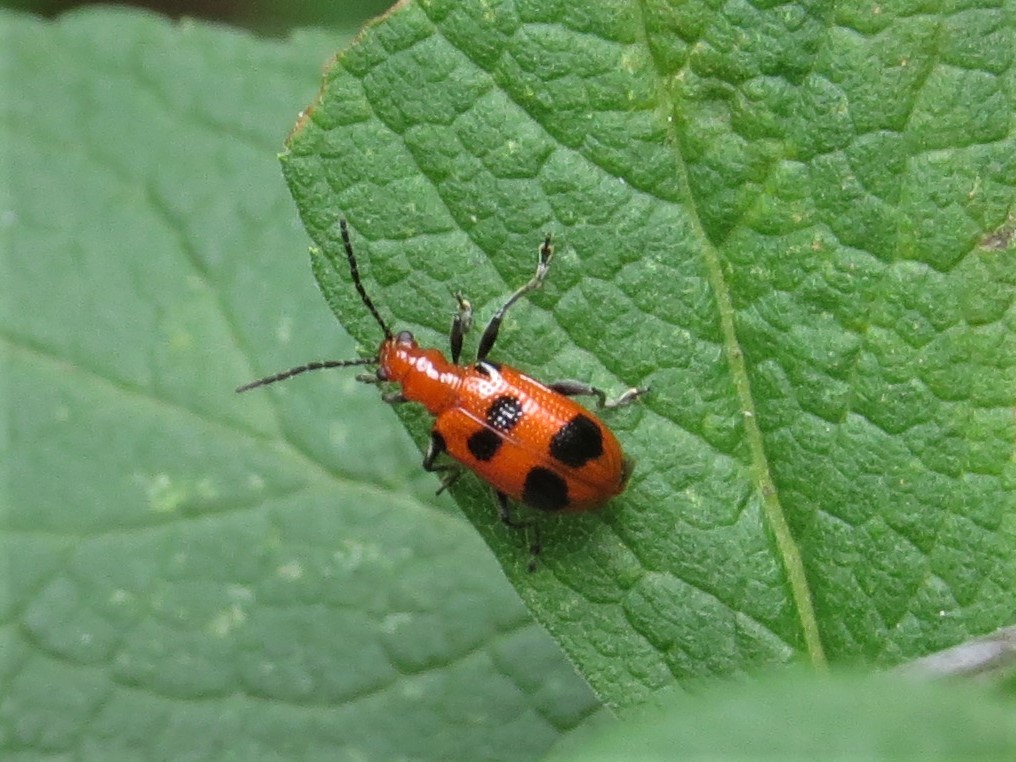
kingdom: Animalia
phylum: Arthropoda
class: Insecta
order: Coleoptera
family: Chrysomelidae
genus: Neolema
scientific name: Neolema sexpunctata
